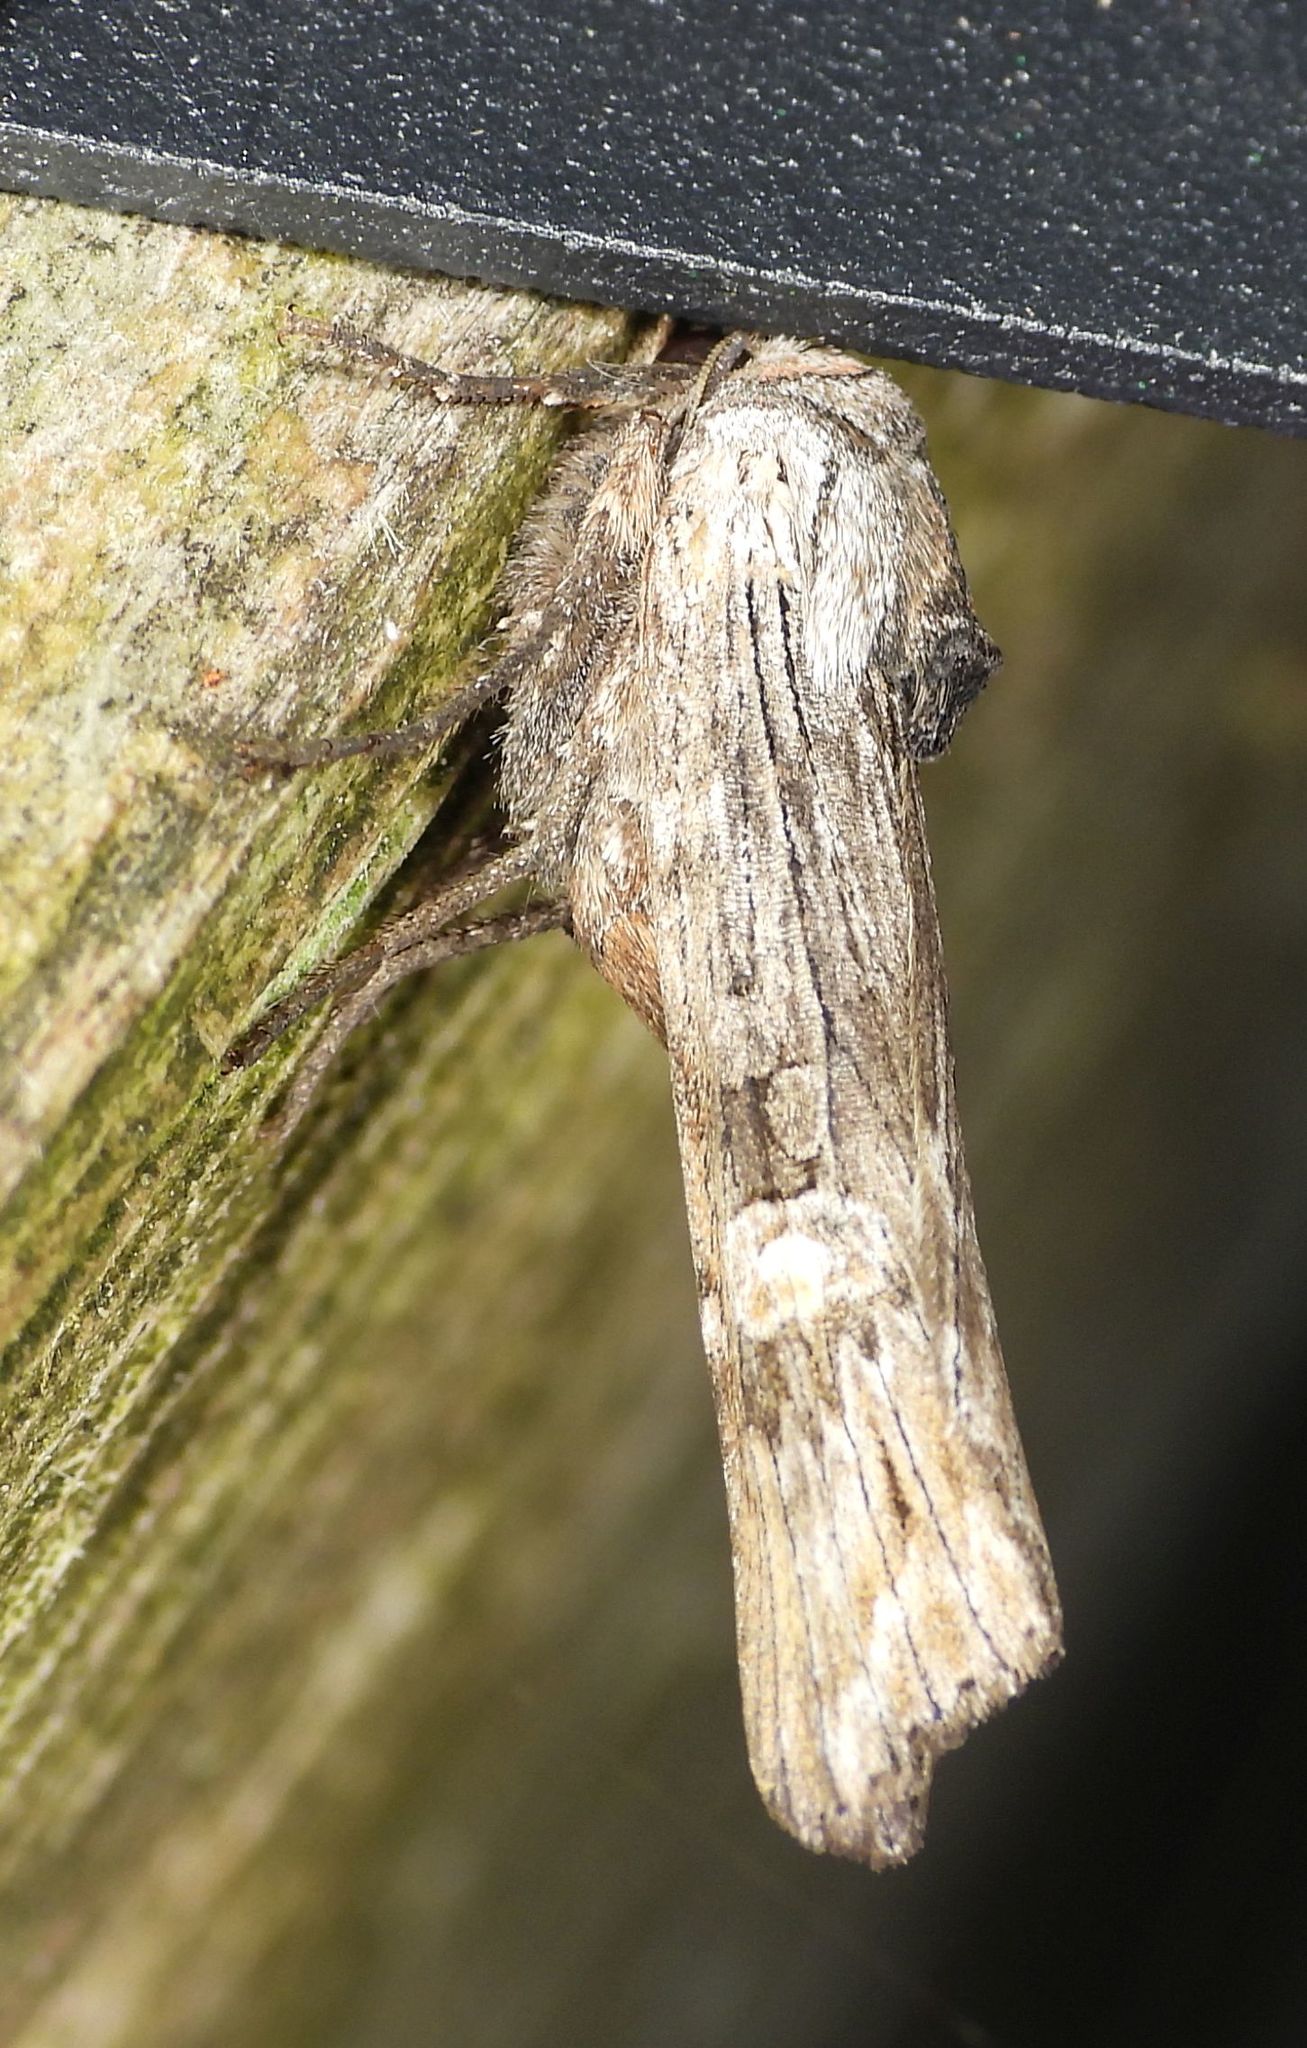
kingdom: Animalia
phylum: Arthropoda
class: Insecta
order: Lepidoptera
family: Noctuidae
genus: Xylena
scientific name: Xylena germana
